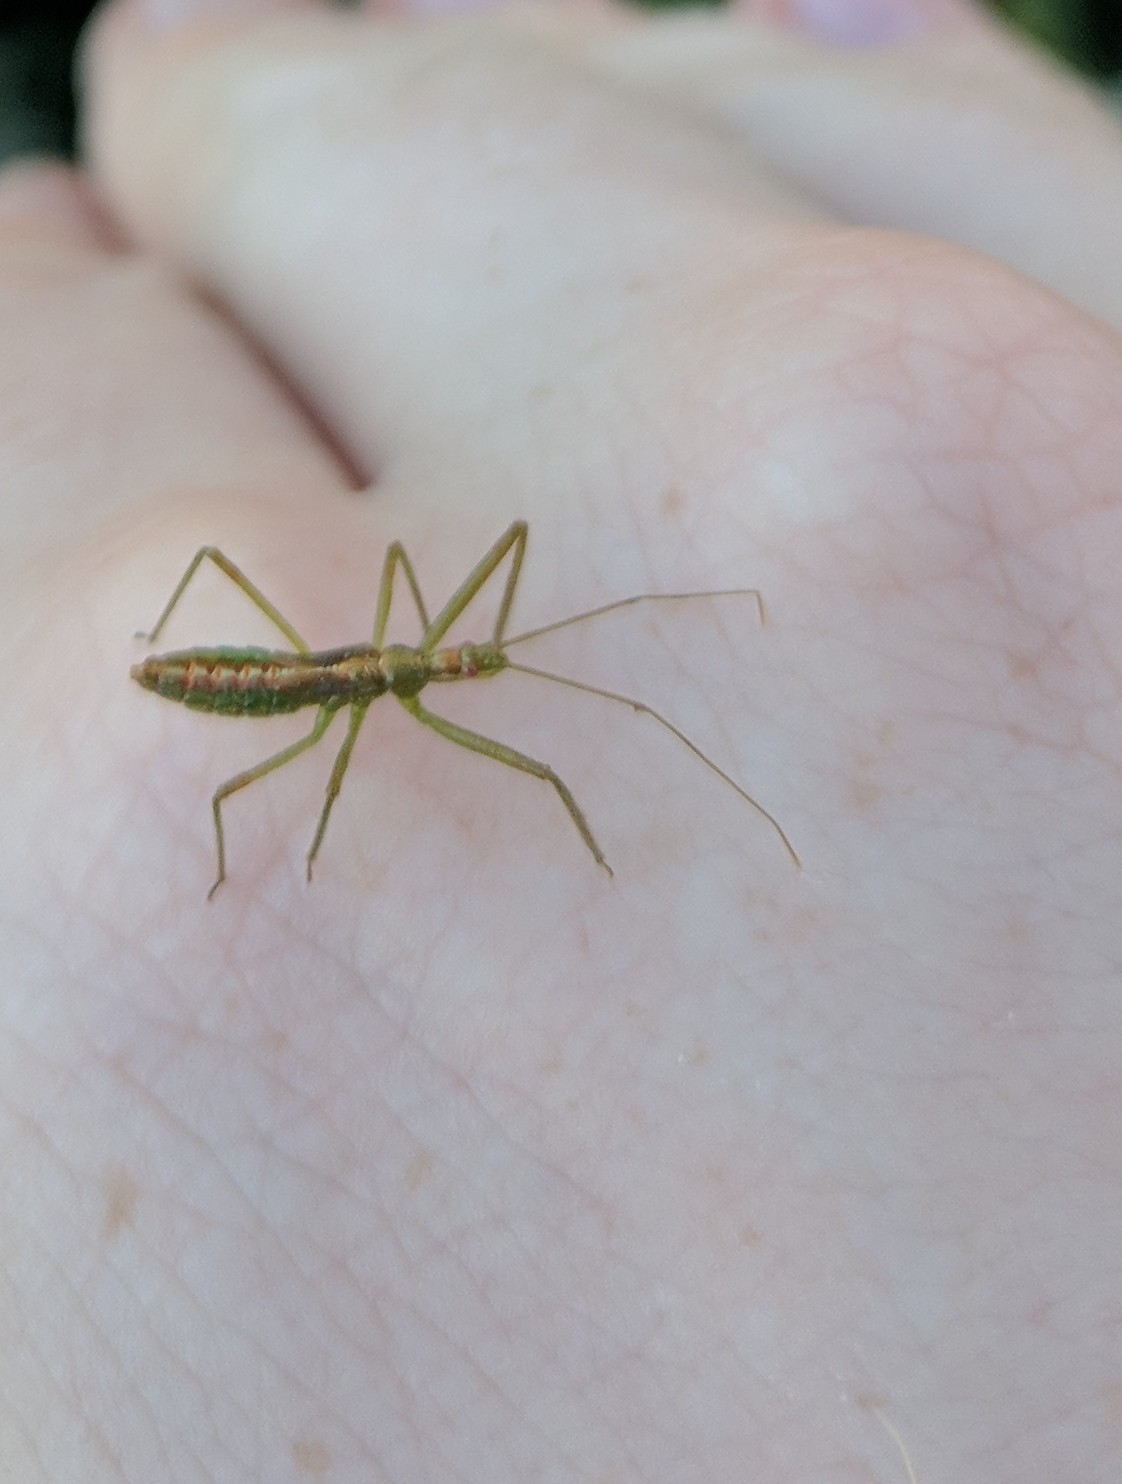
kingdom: Animalia
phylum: Arthropoda
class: Insecta
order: Hemiptera
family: Reduviidae
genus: Zelus
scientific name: Zelus luridus
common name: Pale green assassin bug
